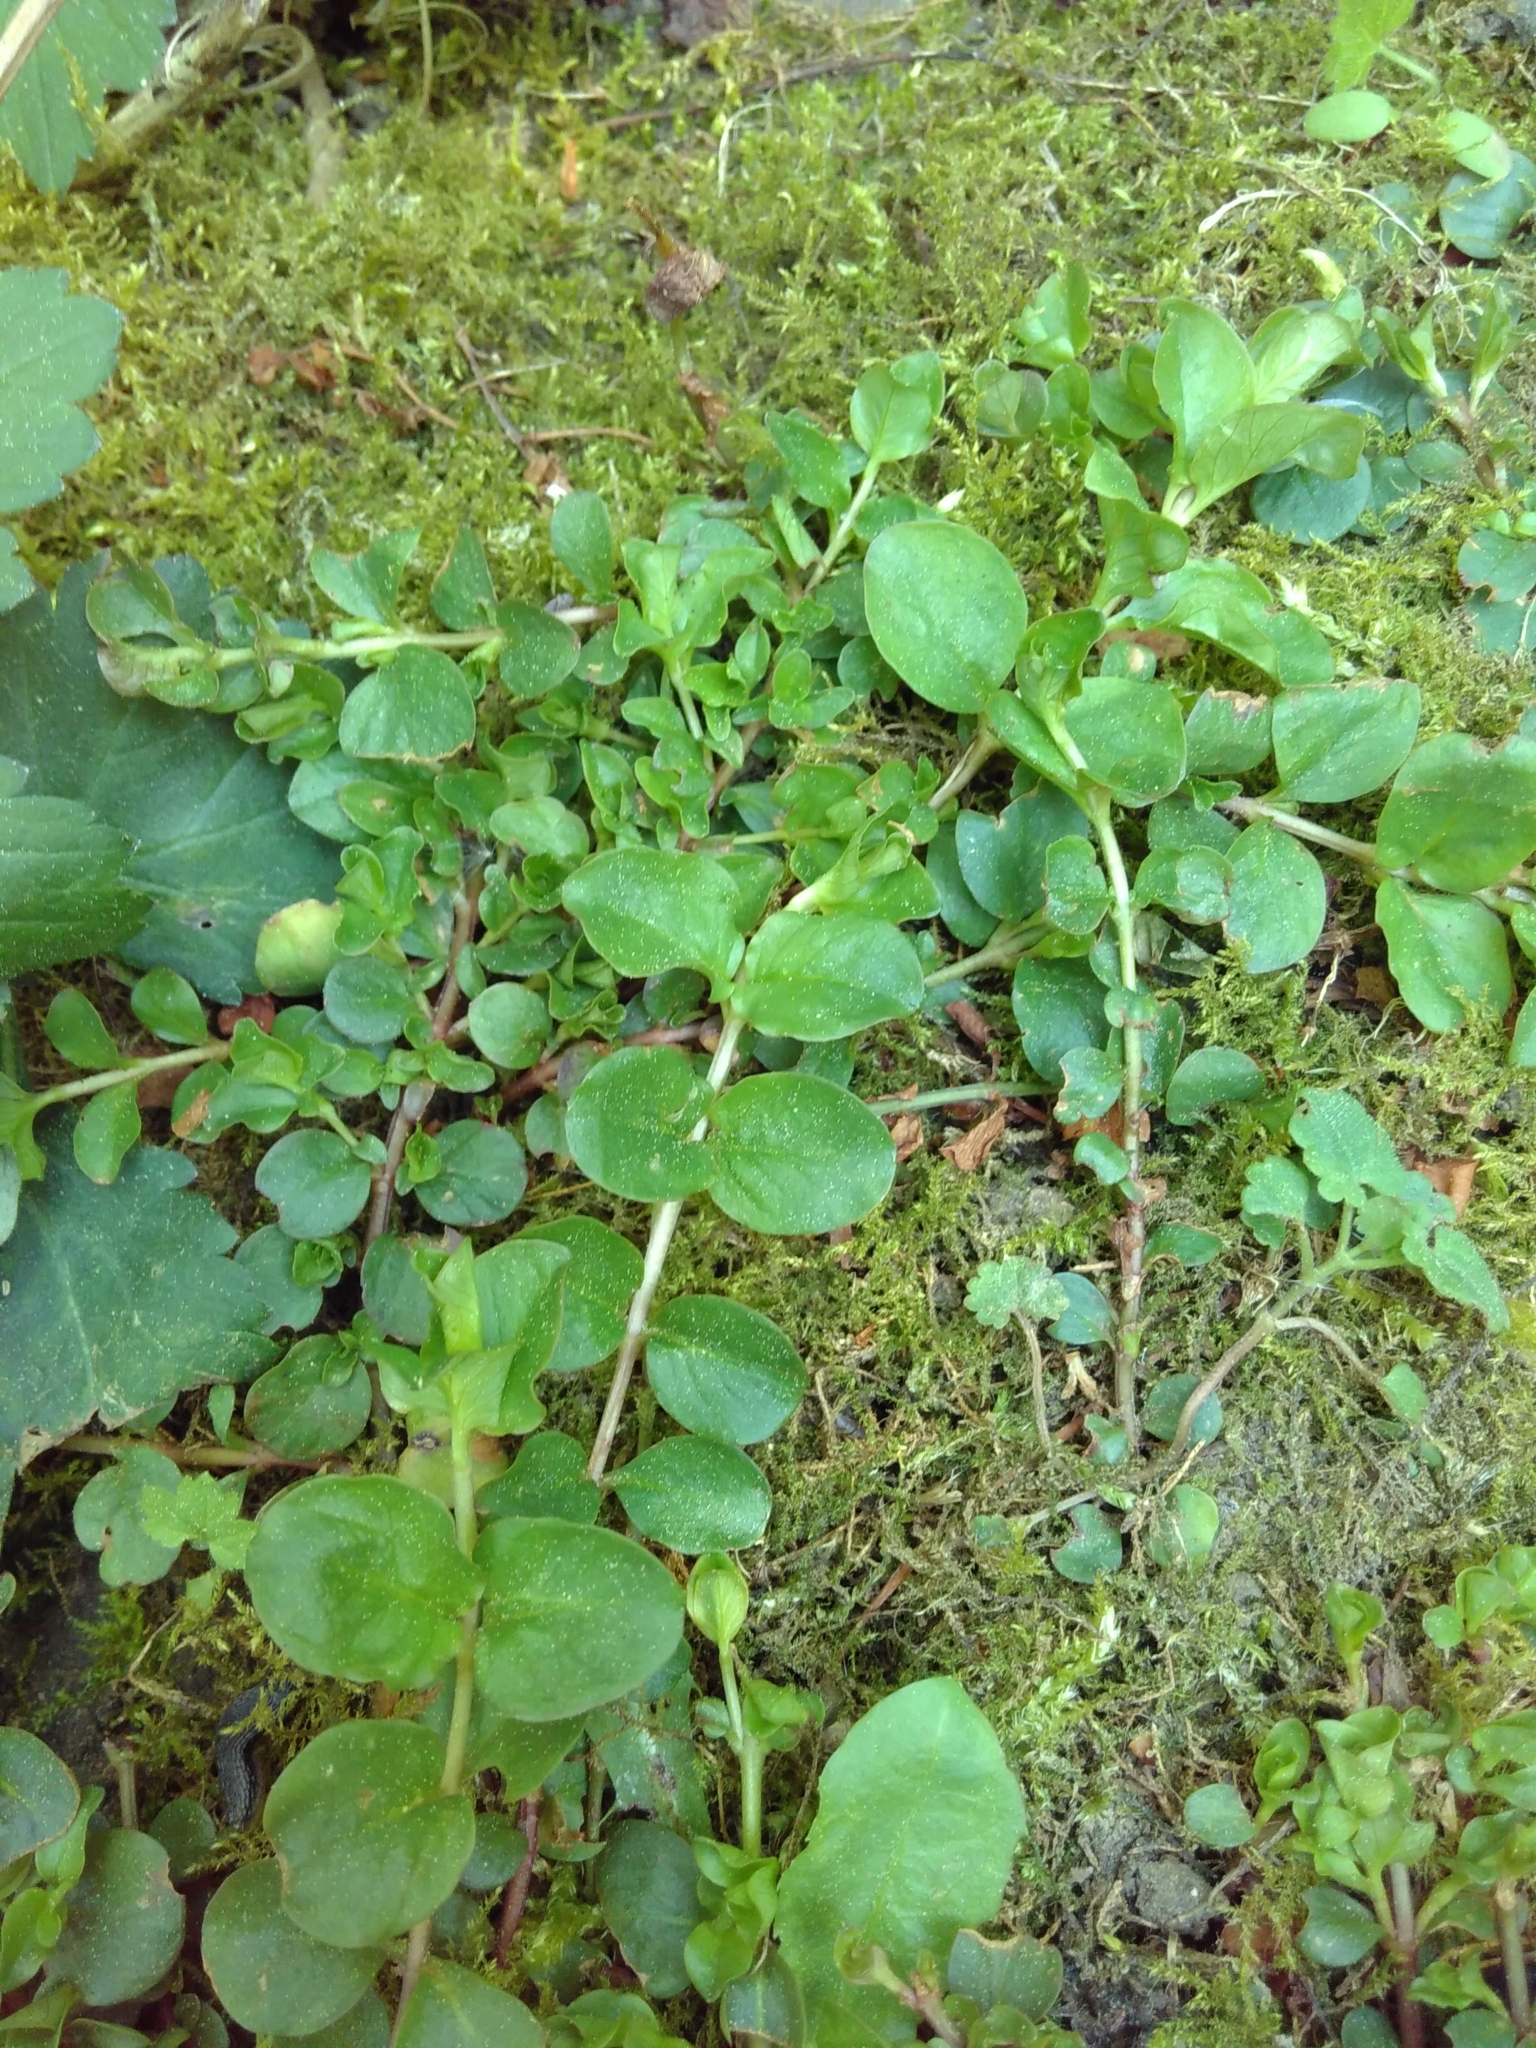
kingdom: Plantae
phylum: Tracheophyta
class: Magnoliopsida
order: Ericales
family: Primulaceae
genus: Lysimachia
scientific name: Lysimachia nummularia
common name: Moneywort
